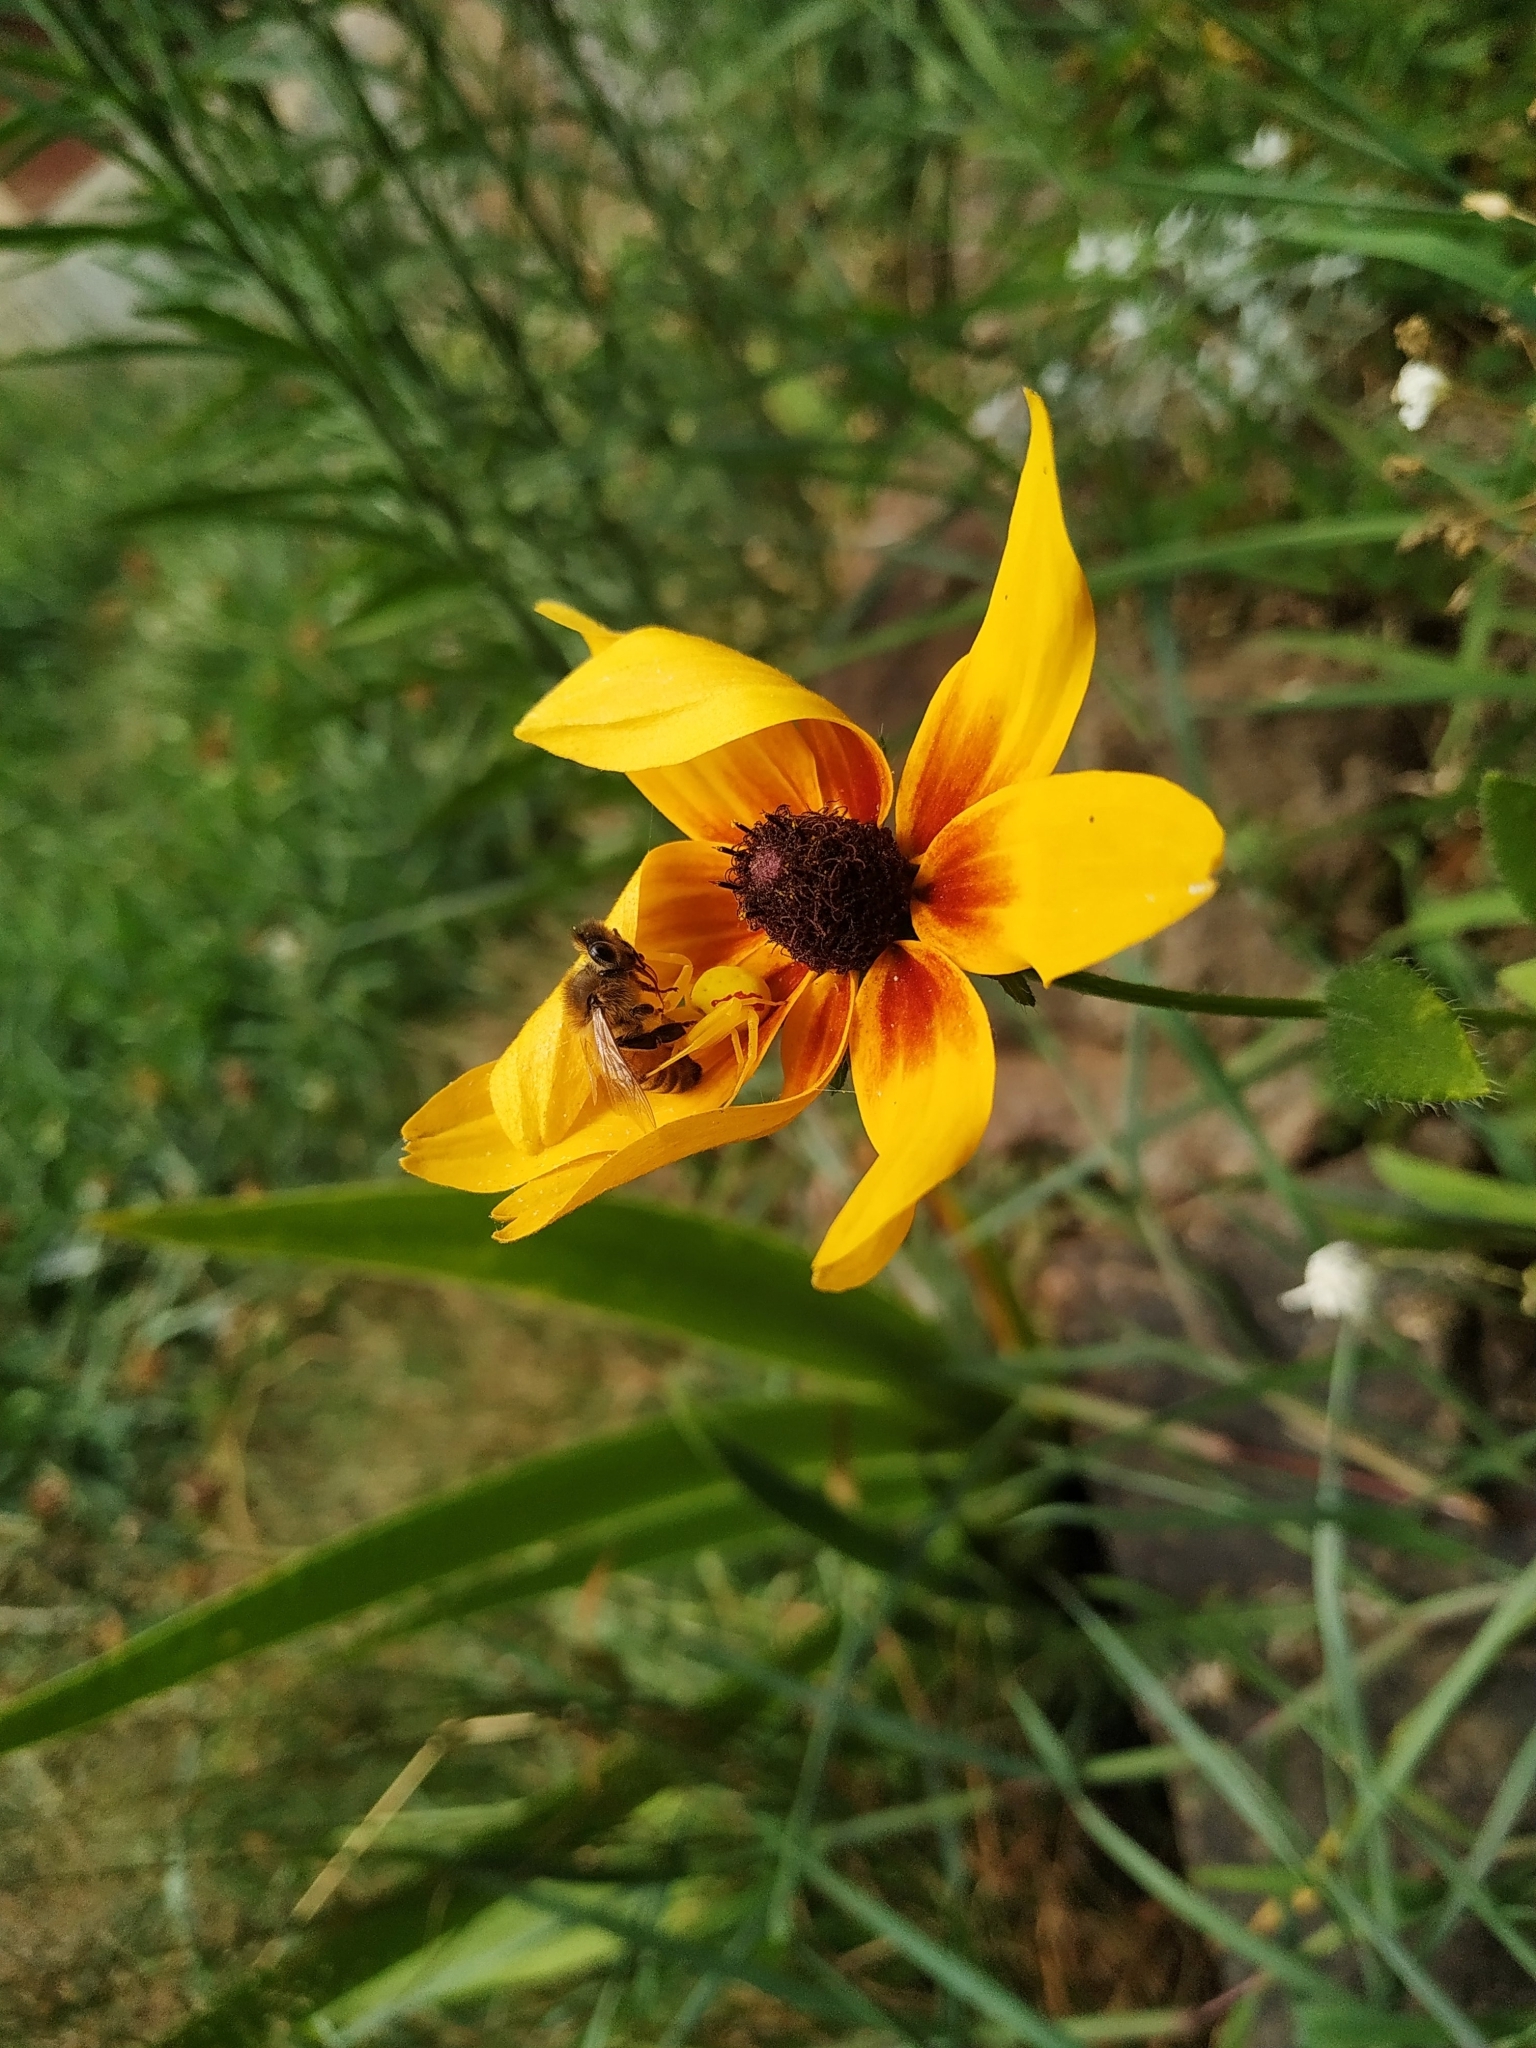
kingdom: Animalia
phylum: Arthropoda
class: Arachnida
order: Araneae
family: Thomisidae
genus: Misumena
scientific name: Misumena vatia
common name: Goldenrod crab spider
